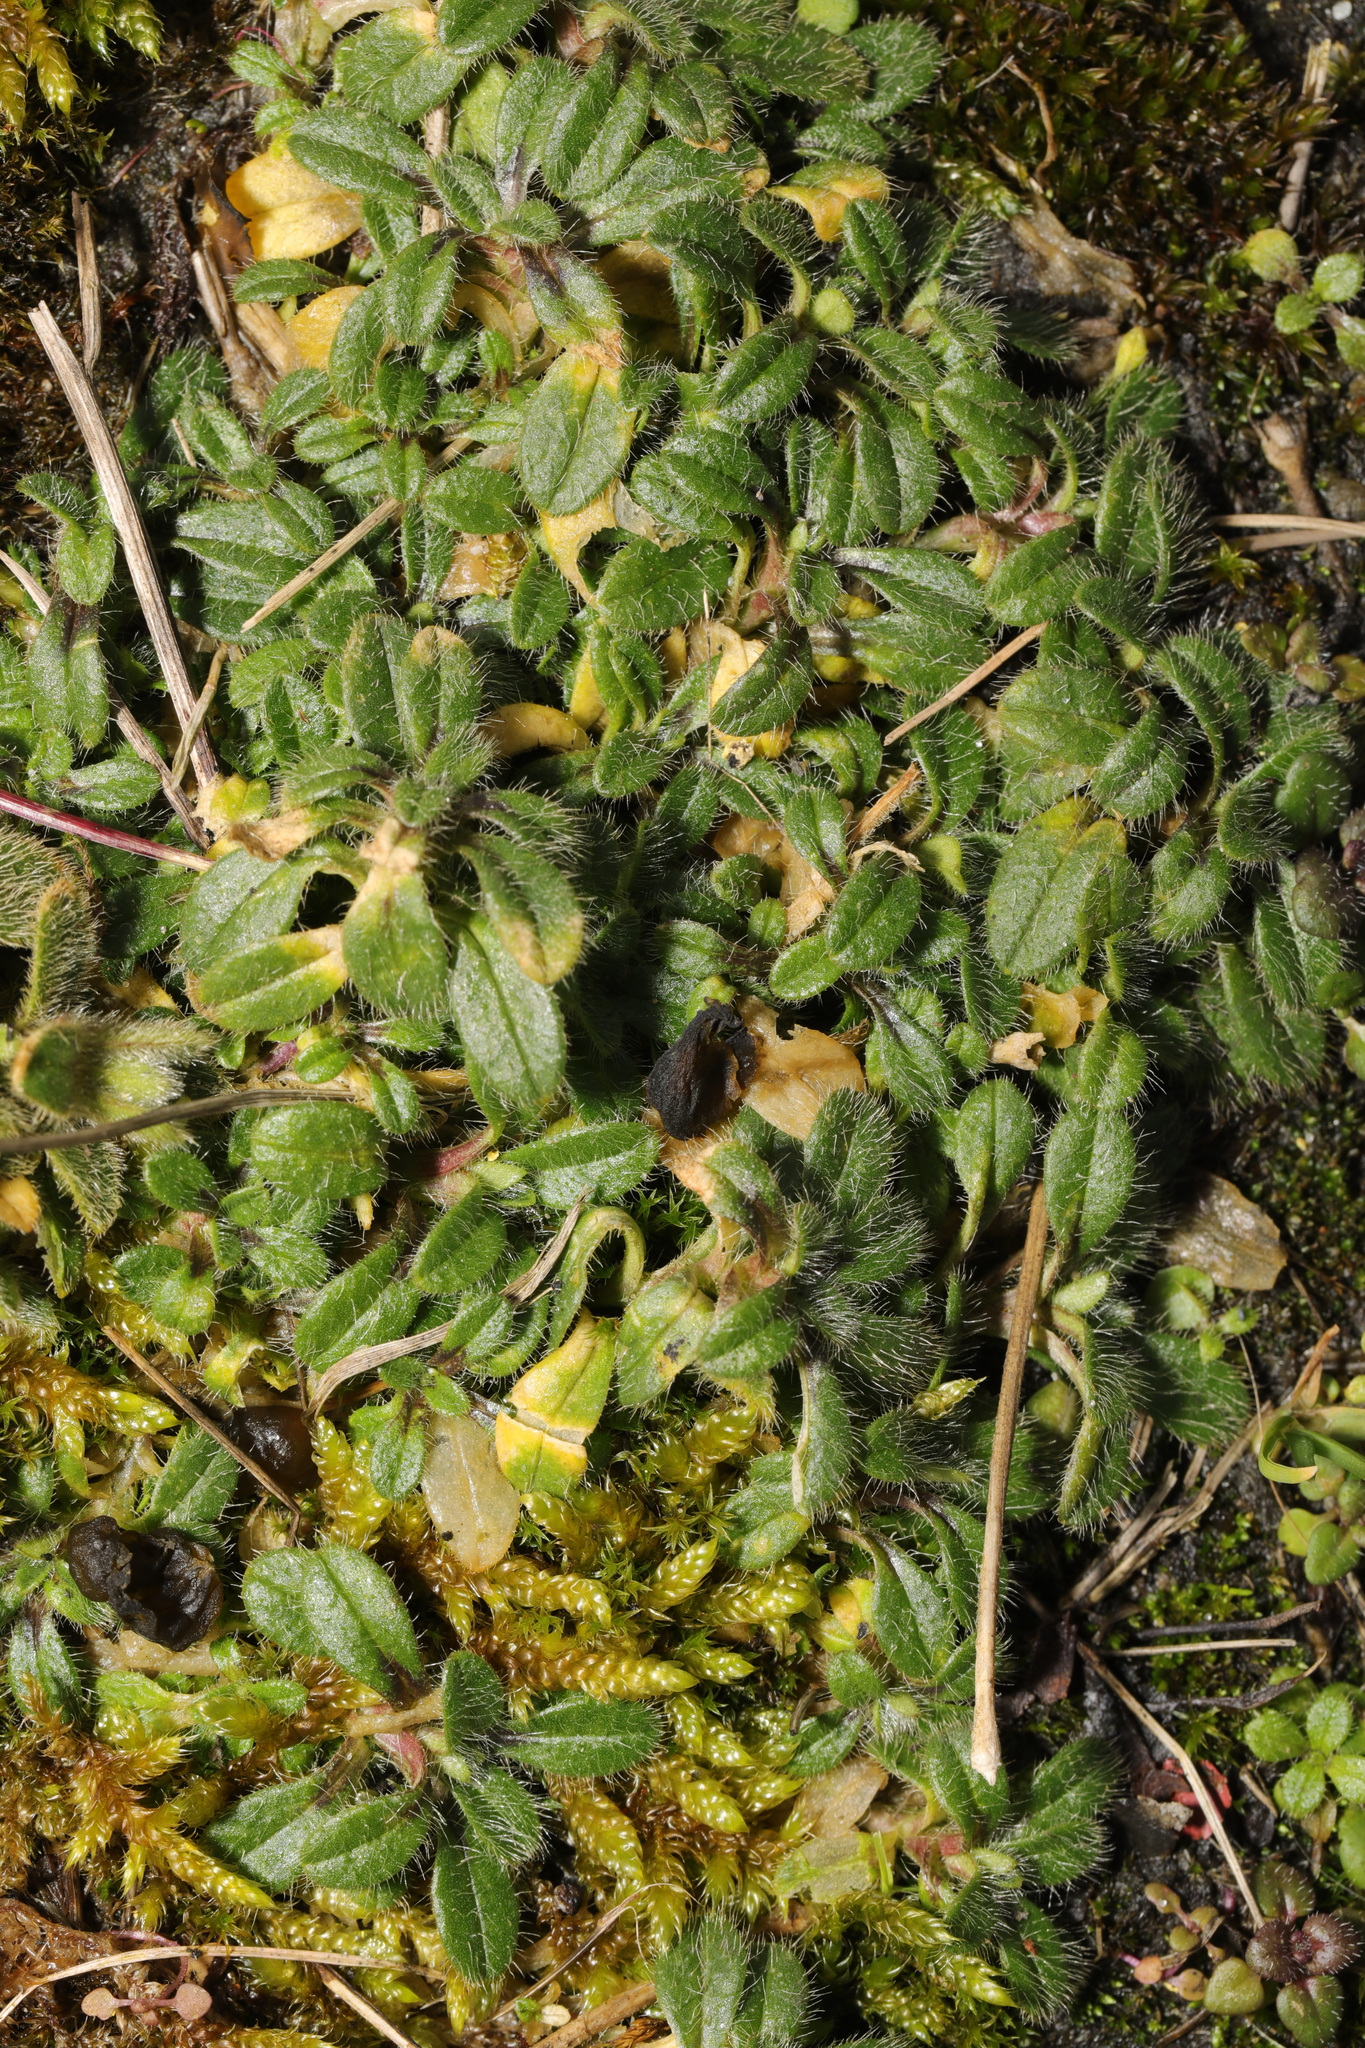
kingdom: Plantae
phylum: Tracheophyta
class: Magnoliopsida
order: Caryophyllales
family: Caryophyllaceae
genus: Cerastium
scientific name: Cerastium fontanum
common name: Common mouse-ear
